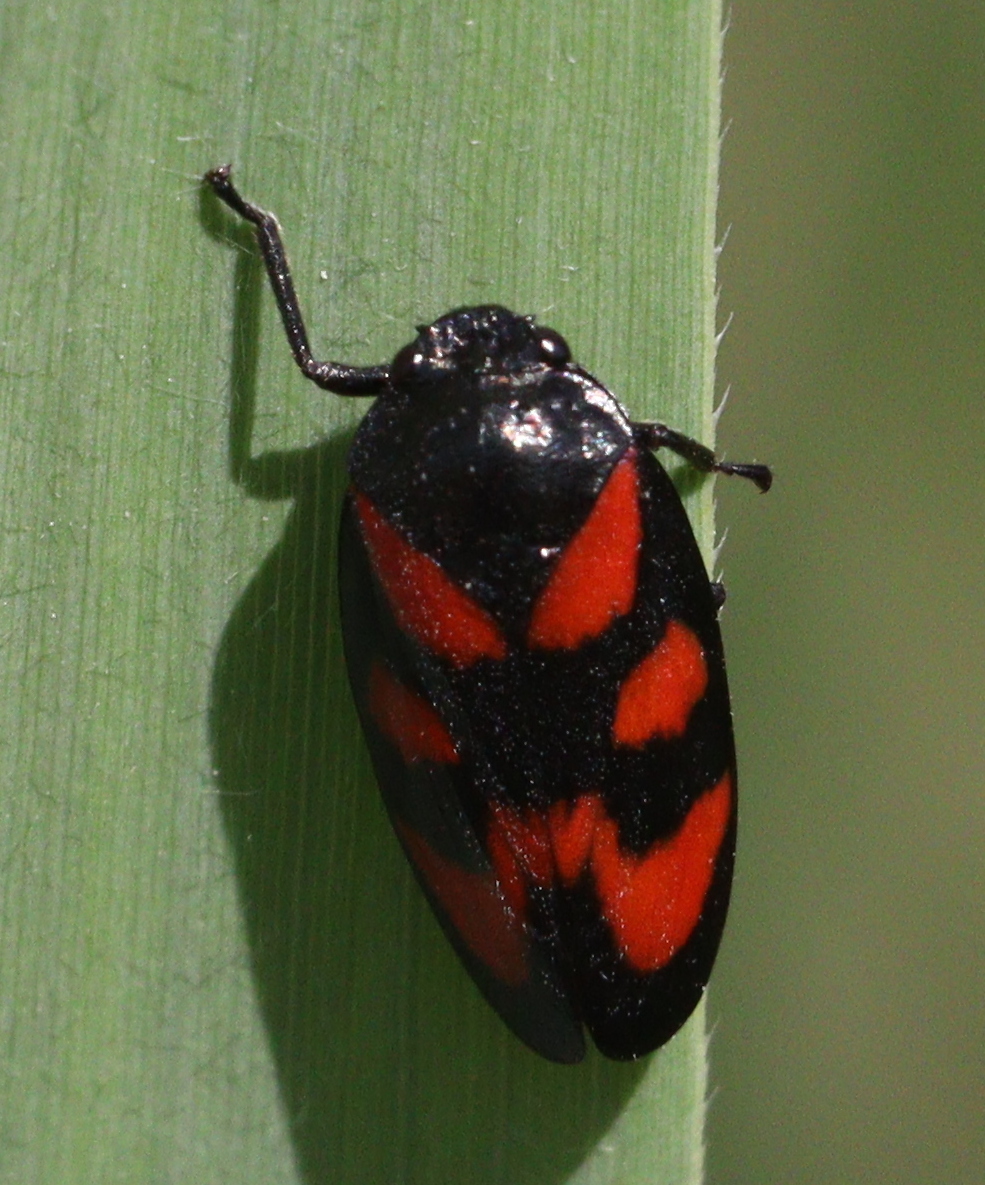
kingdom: Animalia
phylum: Arthropoda
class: Insecta
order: Hemiptera
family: Cercopidae
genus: Cercopis
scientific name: Cercopis vulnerata
